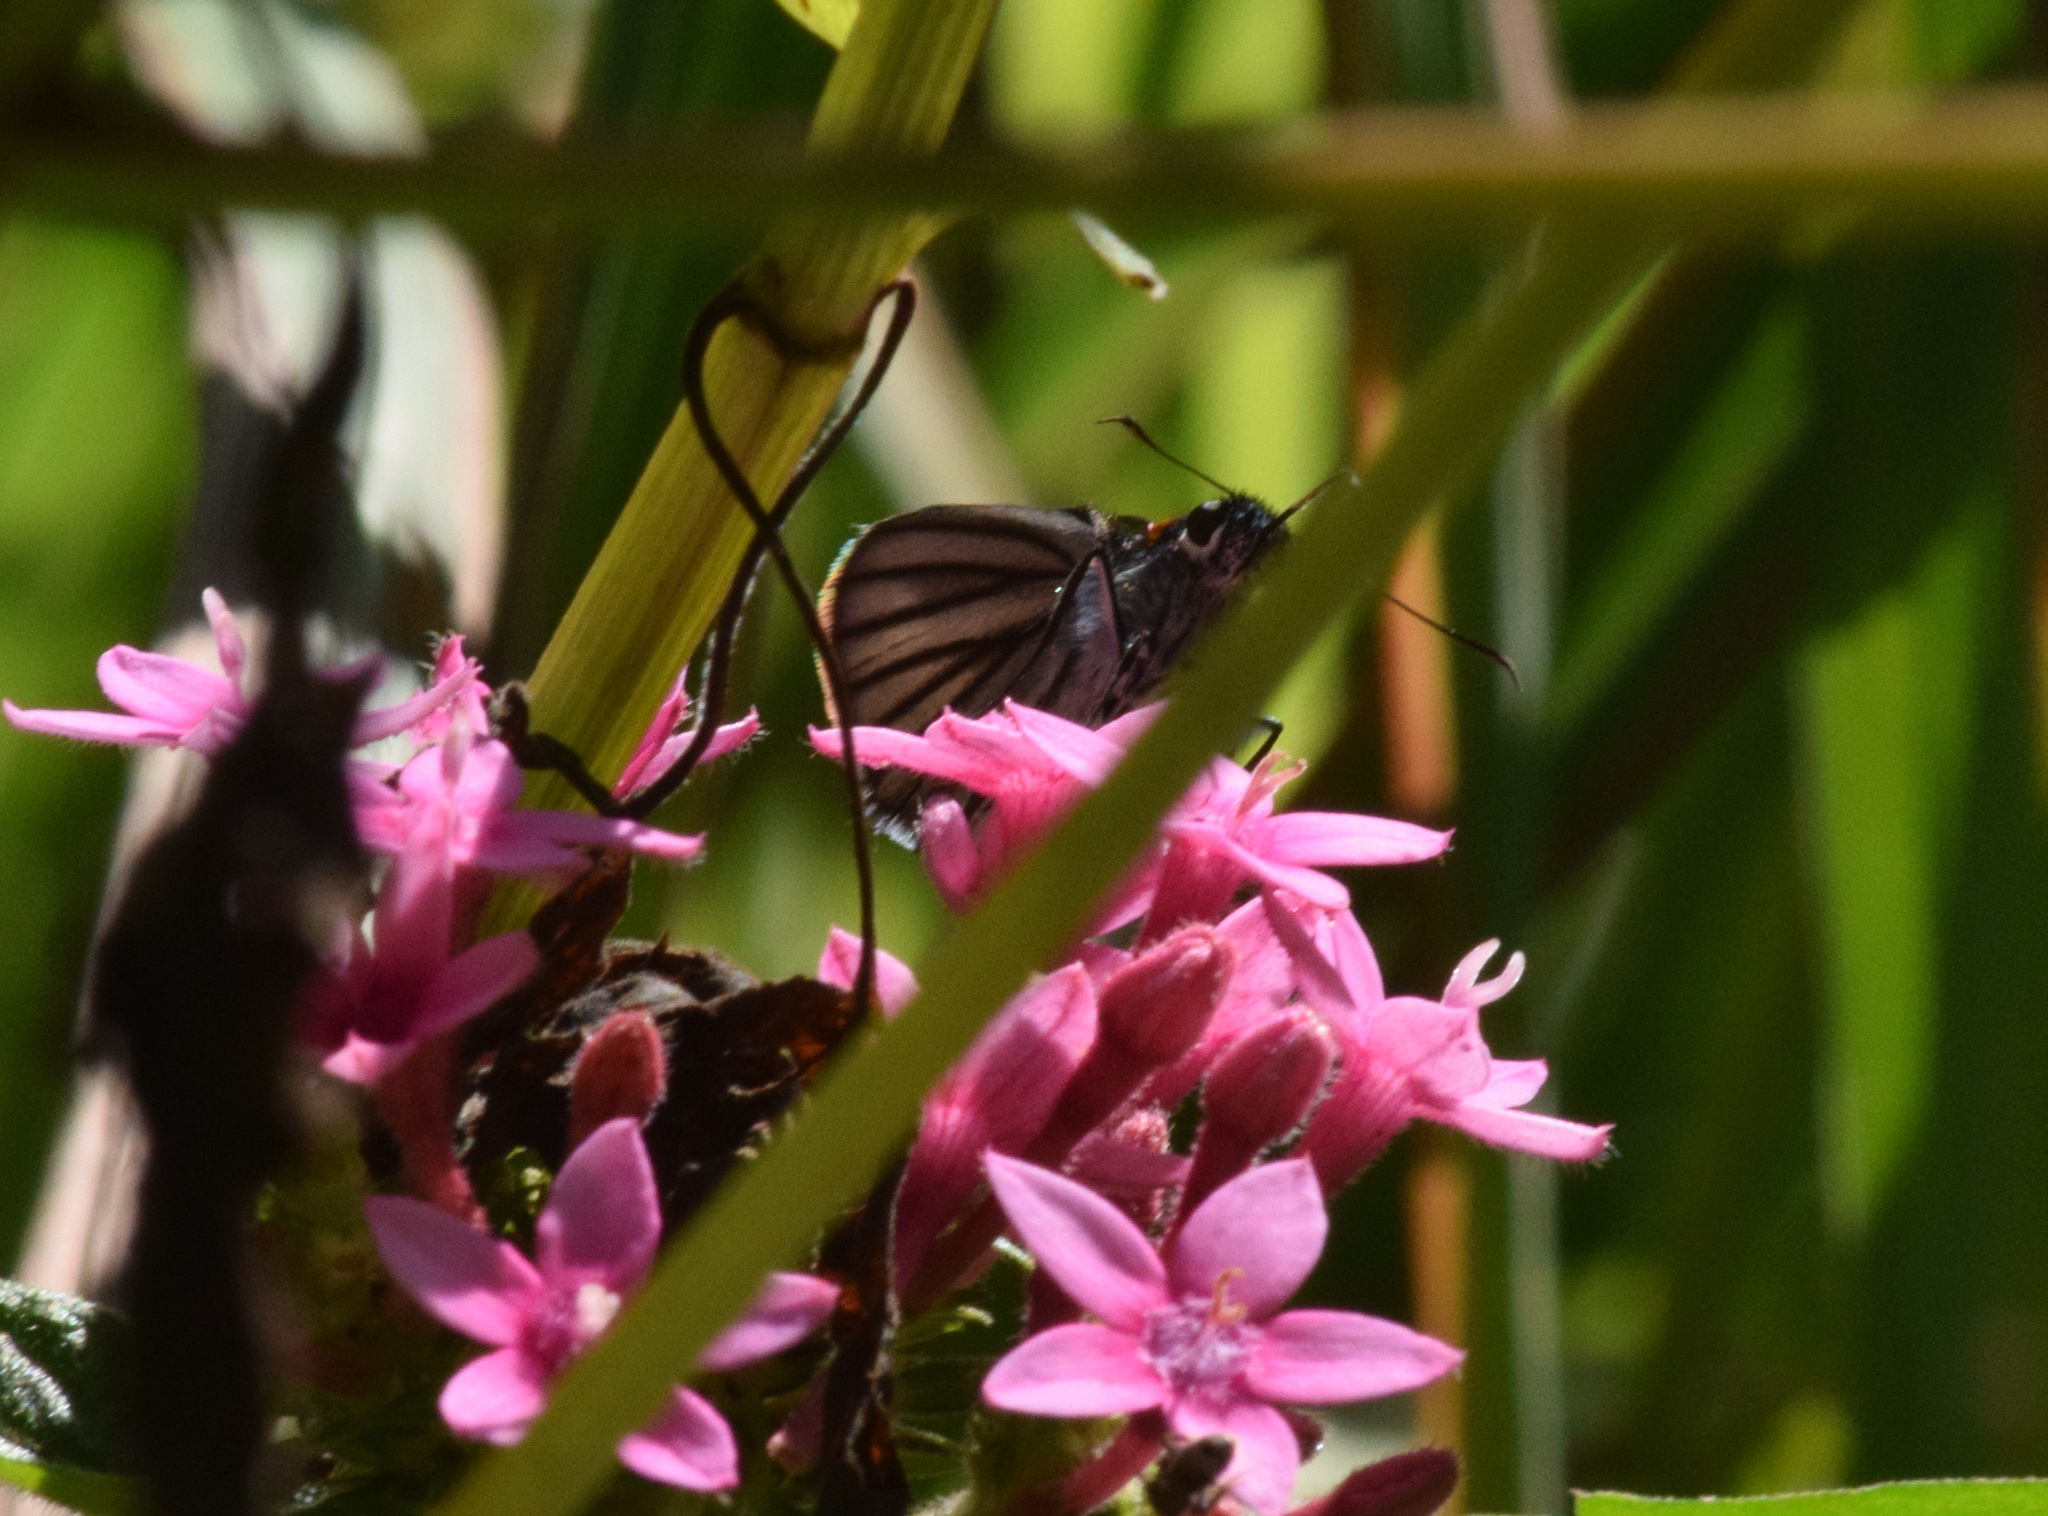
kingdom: Animalia
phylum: Arthropoda
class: Insecta
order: Lepidoptera
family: Hesperiidae
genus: Paracarystus
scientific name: Paracarystus hypargyra
